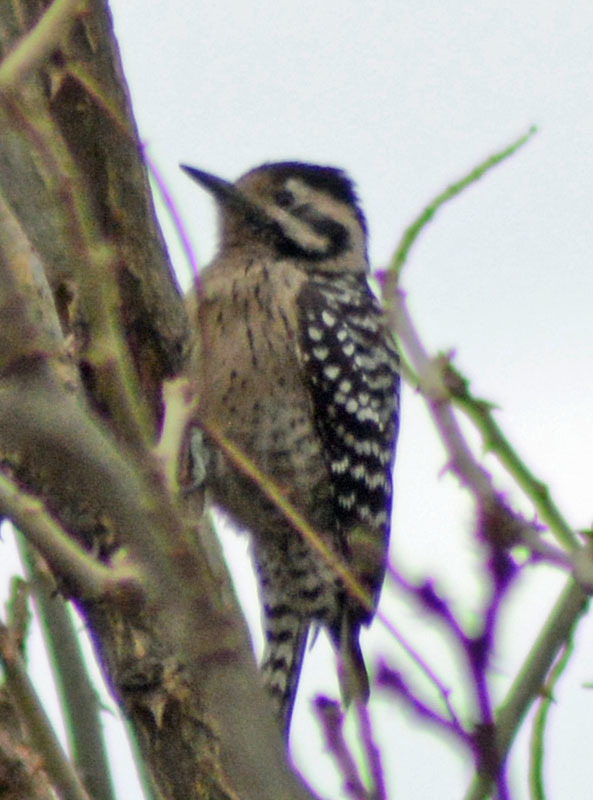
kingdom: Animalia
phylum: Chordata
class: Aves
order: Piciformes
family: Picidae
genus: Dryobates
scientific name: Dryobates scalaris
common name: Ladder-backed woodpecker
